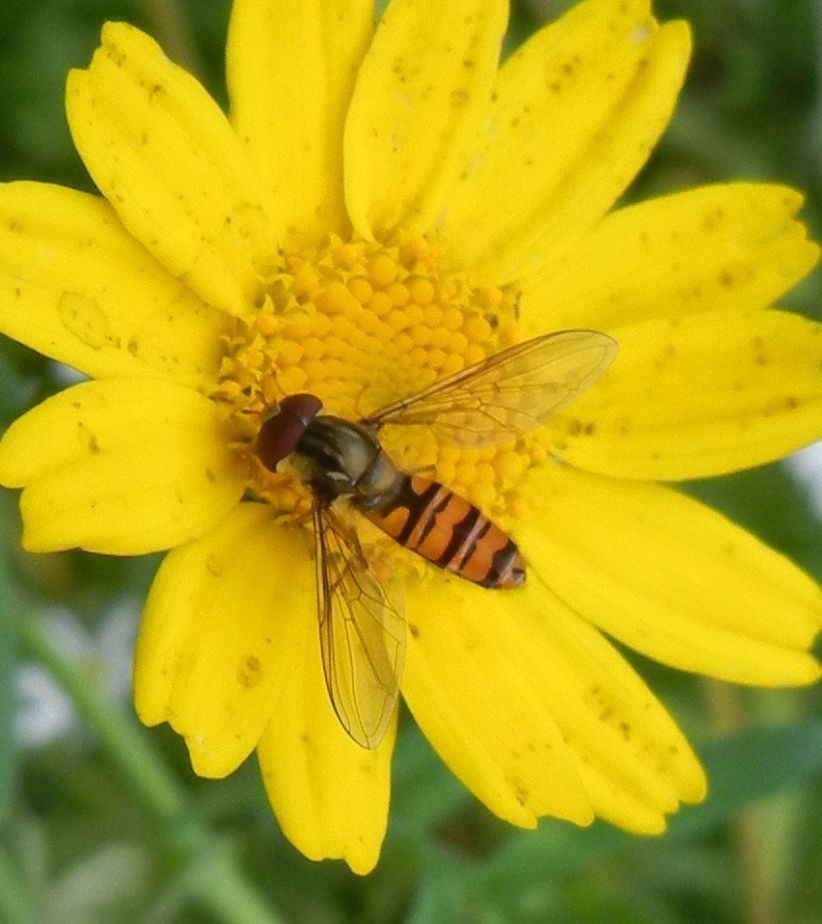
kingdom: Animalia
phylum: Arthropoda
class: Insecta
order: Diptera
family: Syrphidae
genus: Episyrphus
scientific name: Episyrphus balteatus
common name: Marmalade hoverfly
